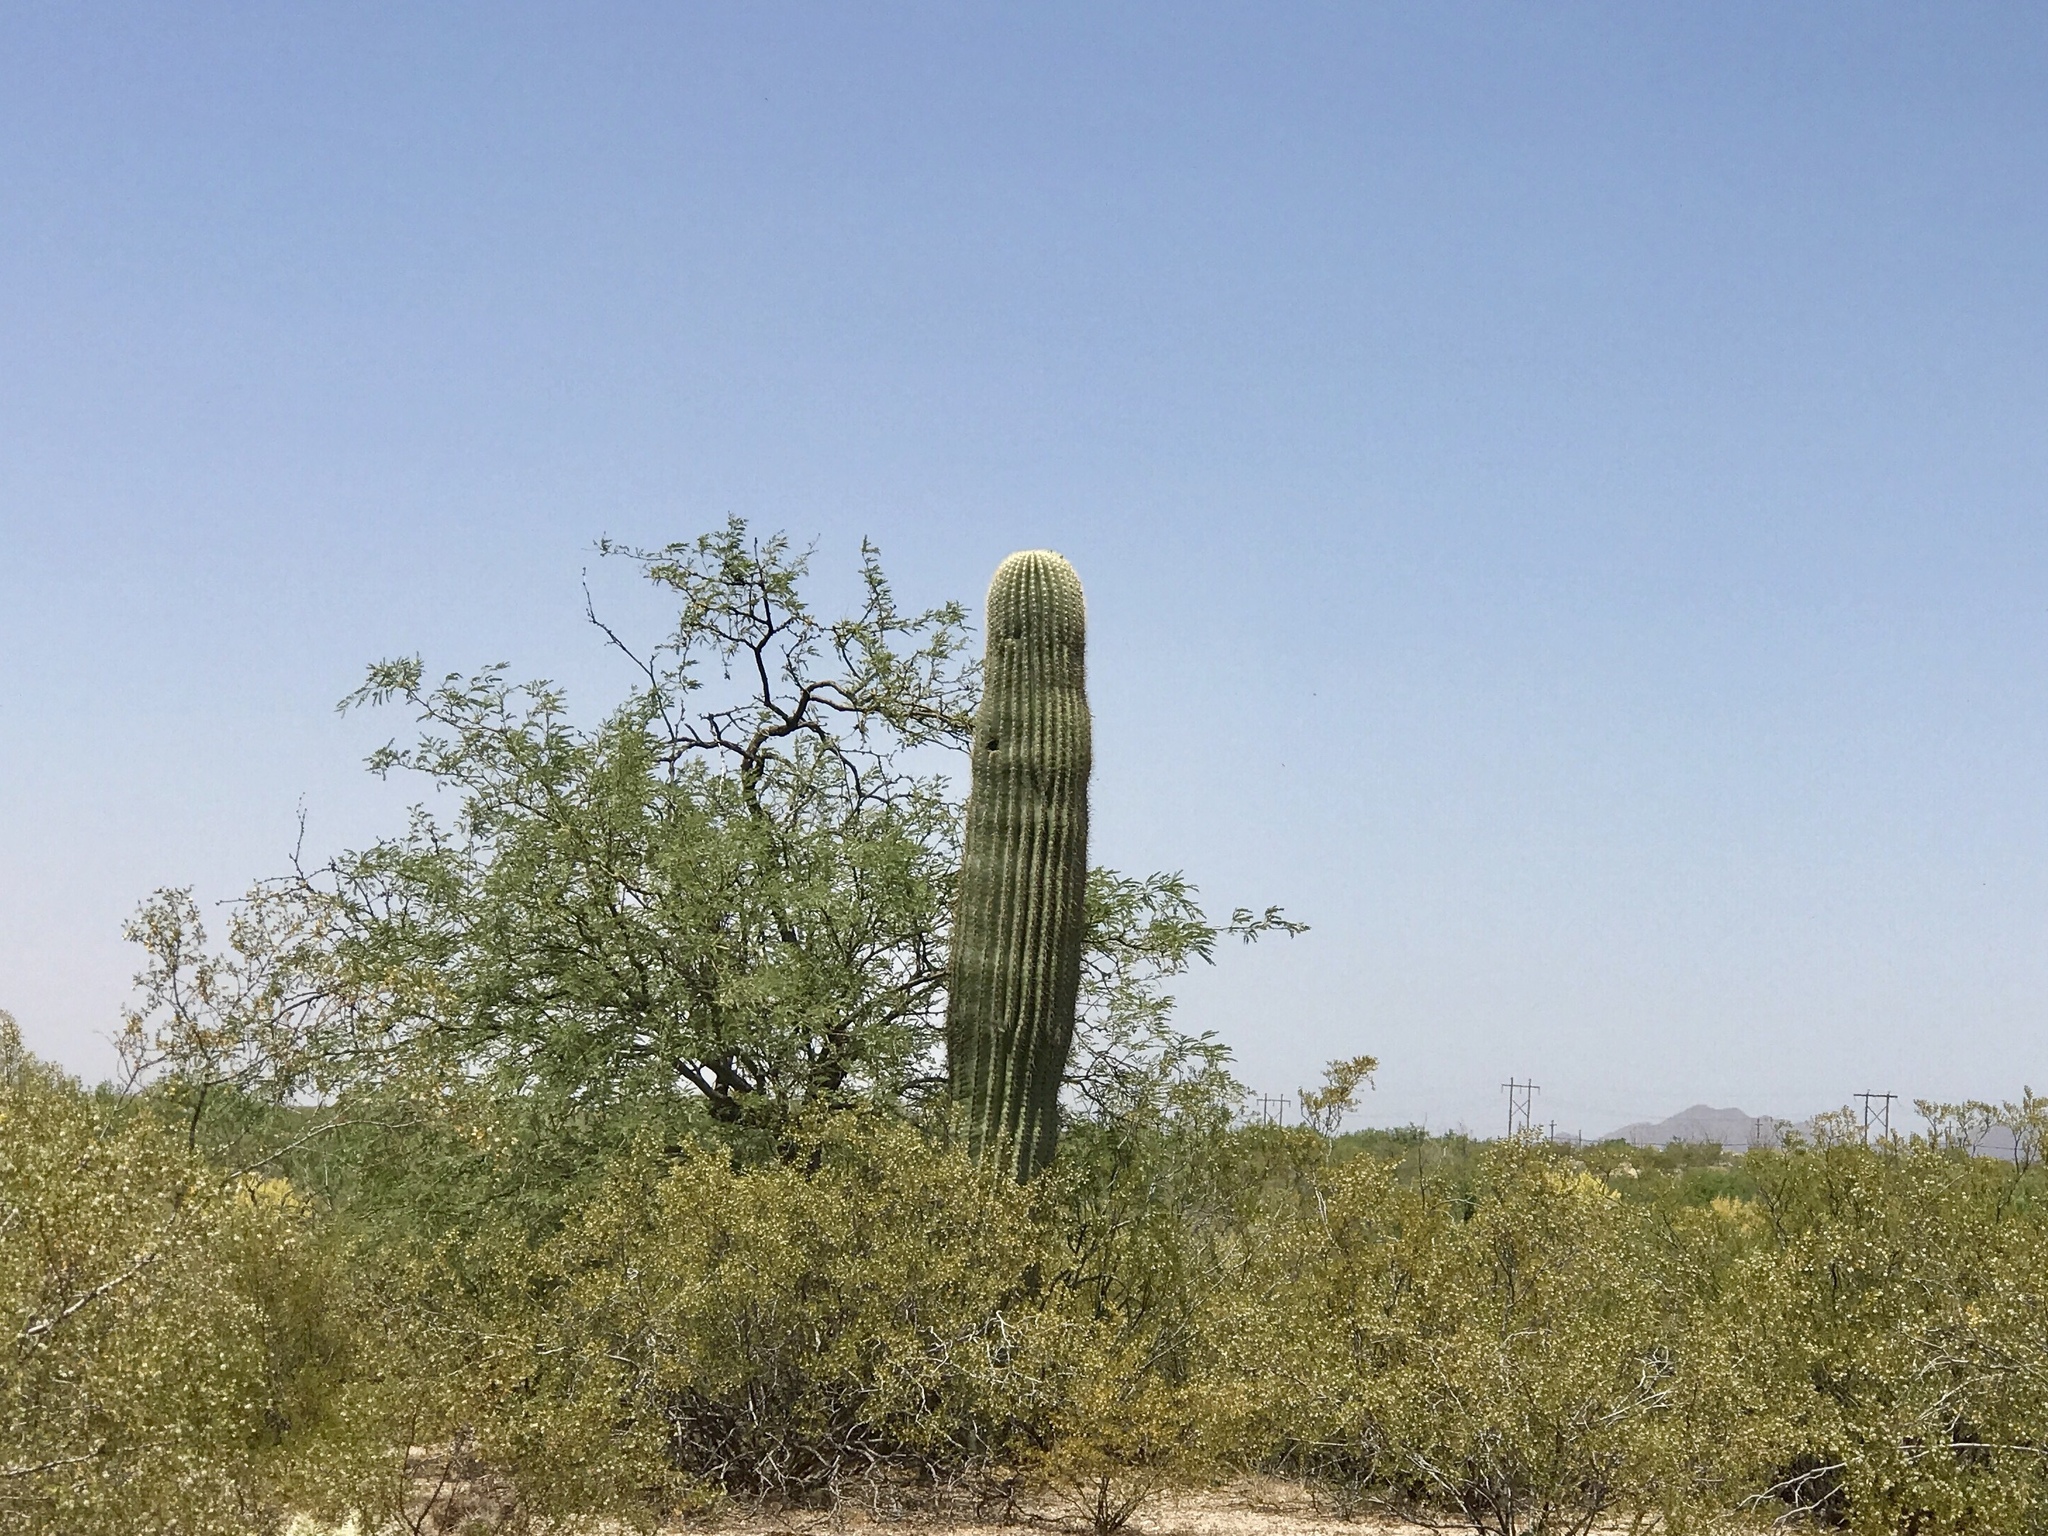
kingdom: Plantae
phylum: Tracheophyta
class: Magnoliopsida
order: Caryophyllales
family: Cactaceae
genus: Carnegiea
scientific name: Carnegiea gigantea
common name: Saguaro
